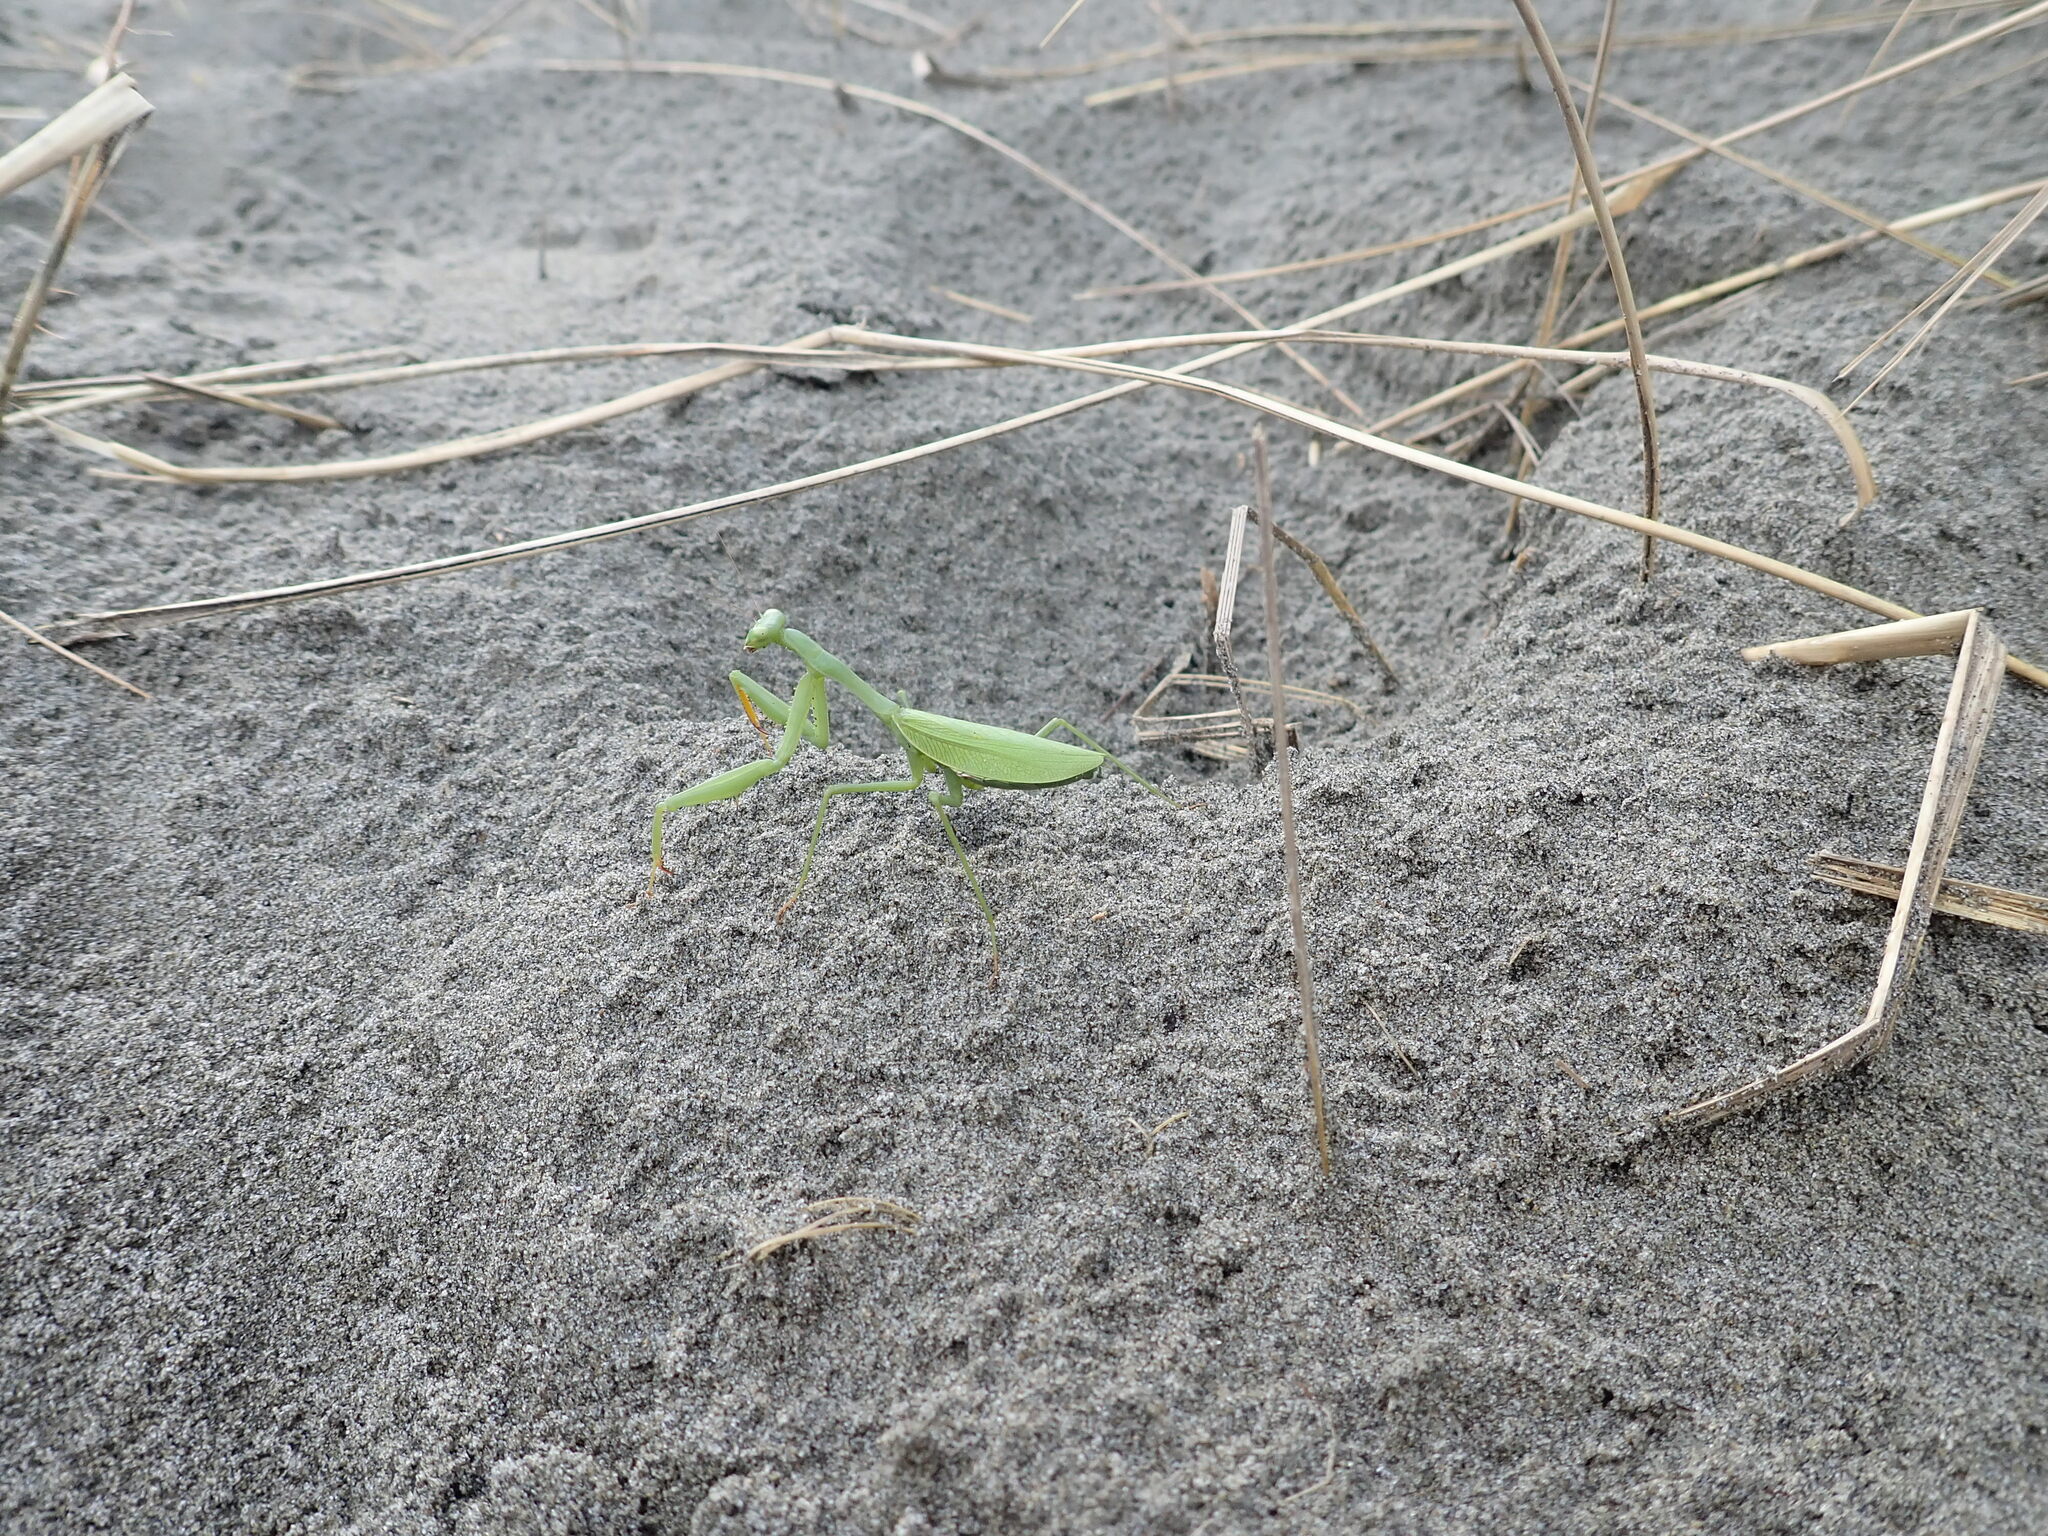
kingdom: Animalia
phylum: Arthropoda
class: Insecta
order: Mantodea
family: Miomantidae
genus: Miomantis
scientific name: Miomantis caffra
